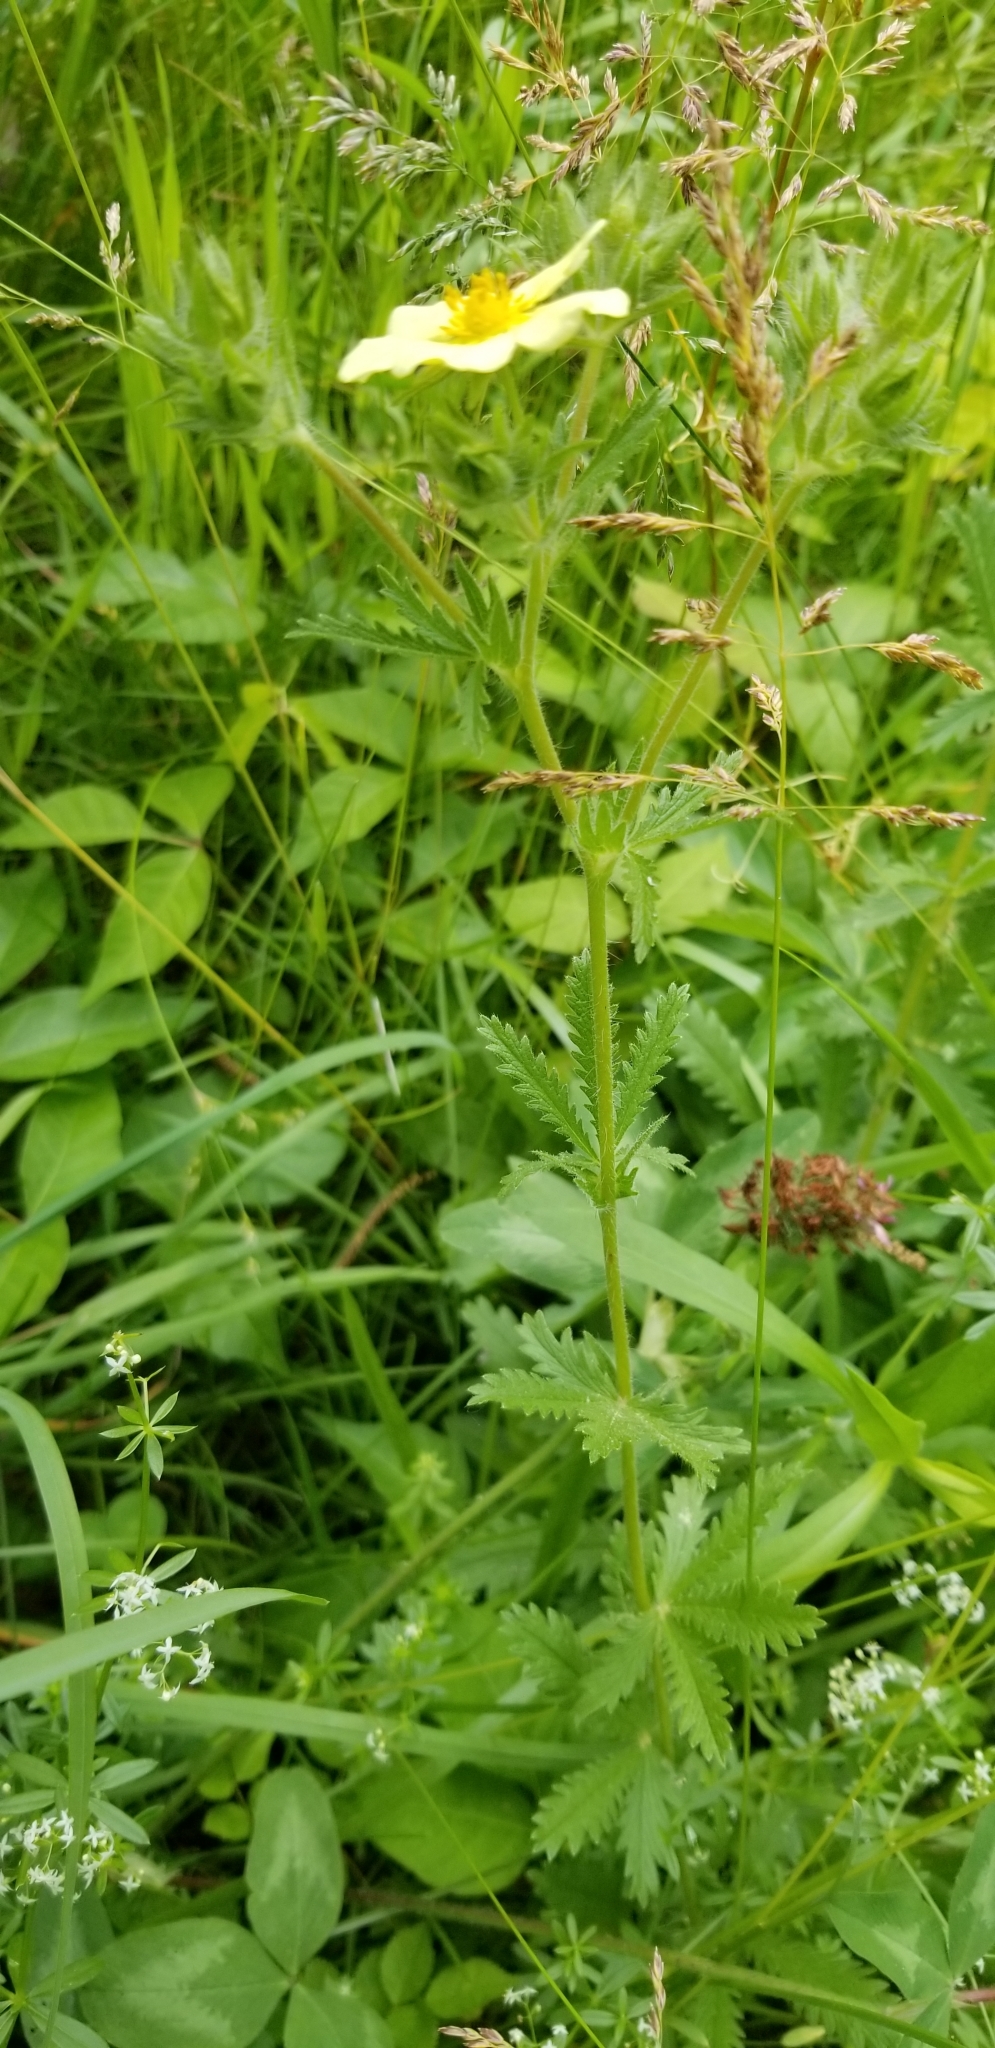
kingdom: Plantae
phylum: Tracheophyta
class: Magnoliopsida
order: Rosales
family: Rosaceae
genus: Potentilla
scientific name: Potentilla recta
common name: Sulphur cinquefoil
